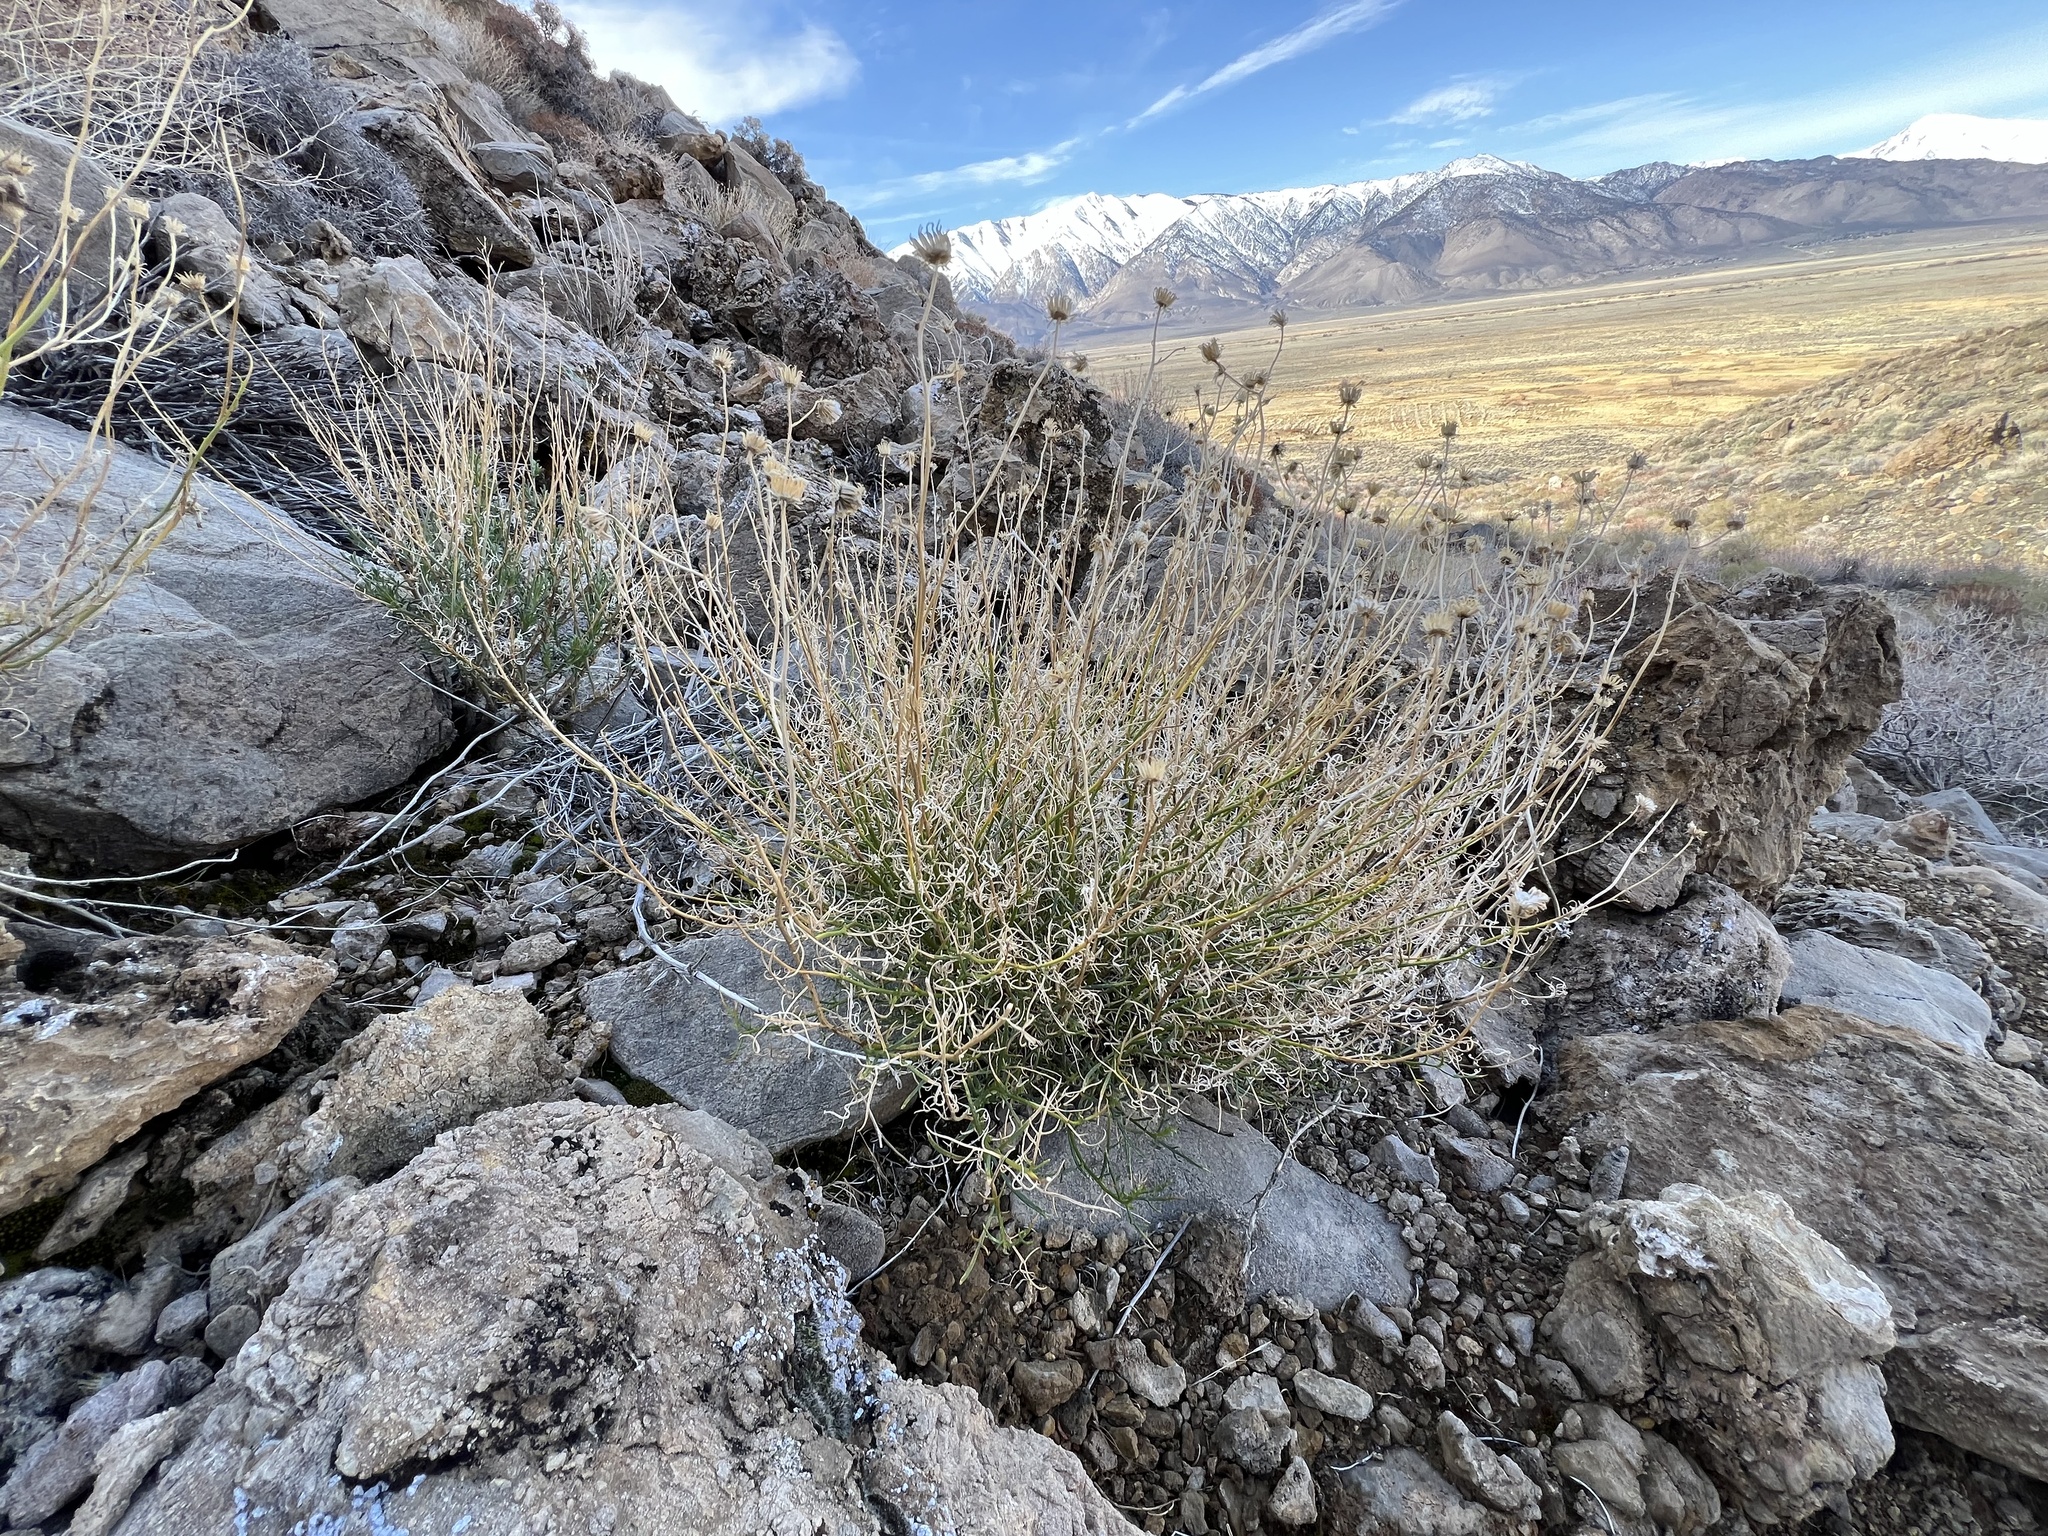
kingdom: Plantae
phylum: Tracheophyta
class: Magnoliopsida
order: Asterales
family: Asteraceae
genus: Senecio
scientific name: Senecio flaccidus
